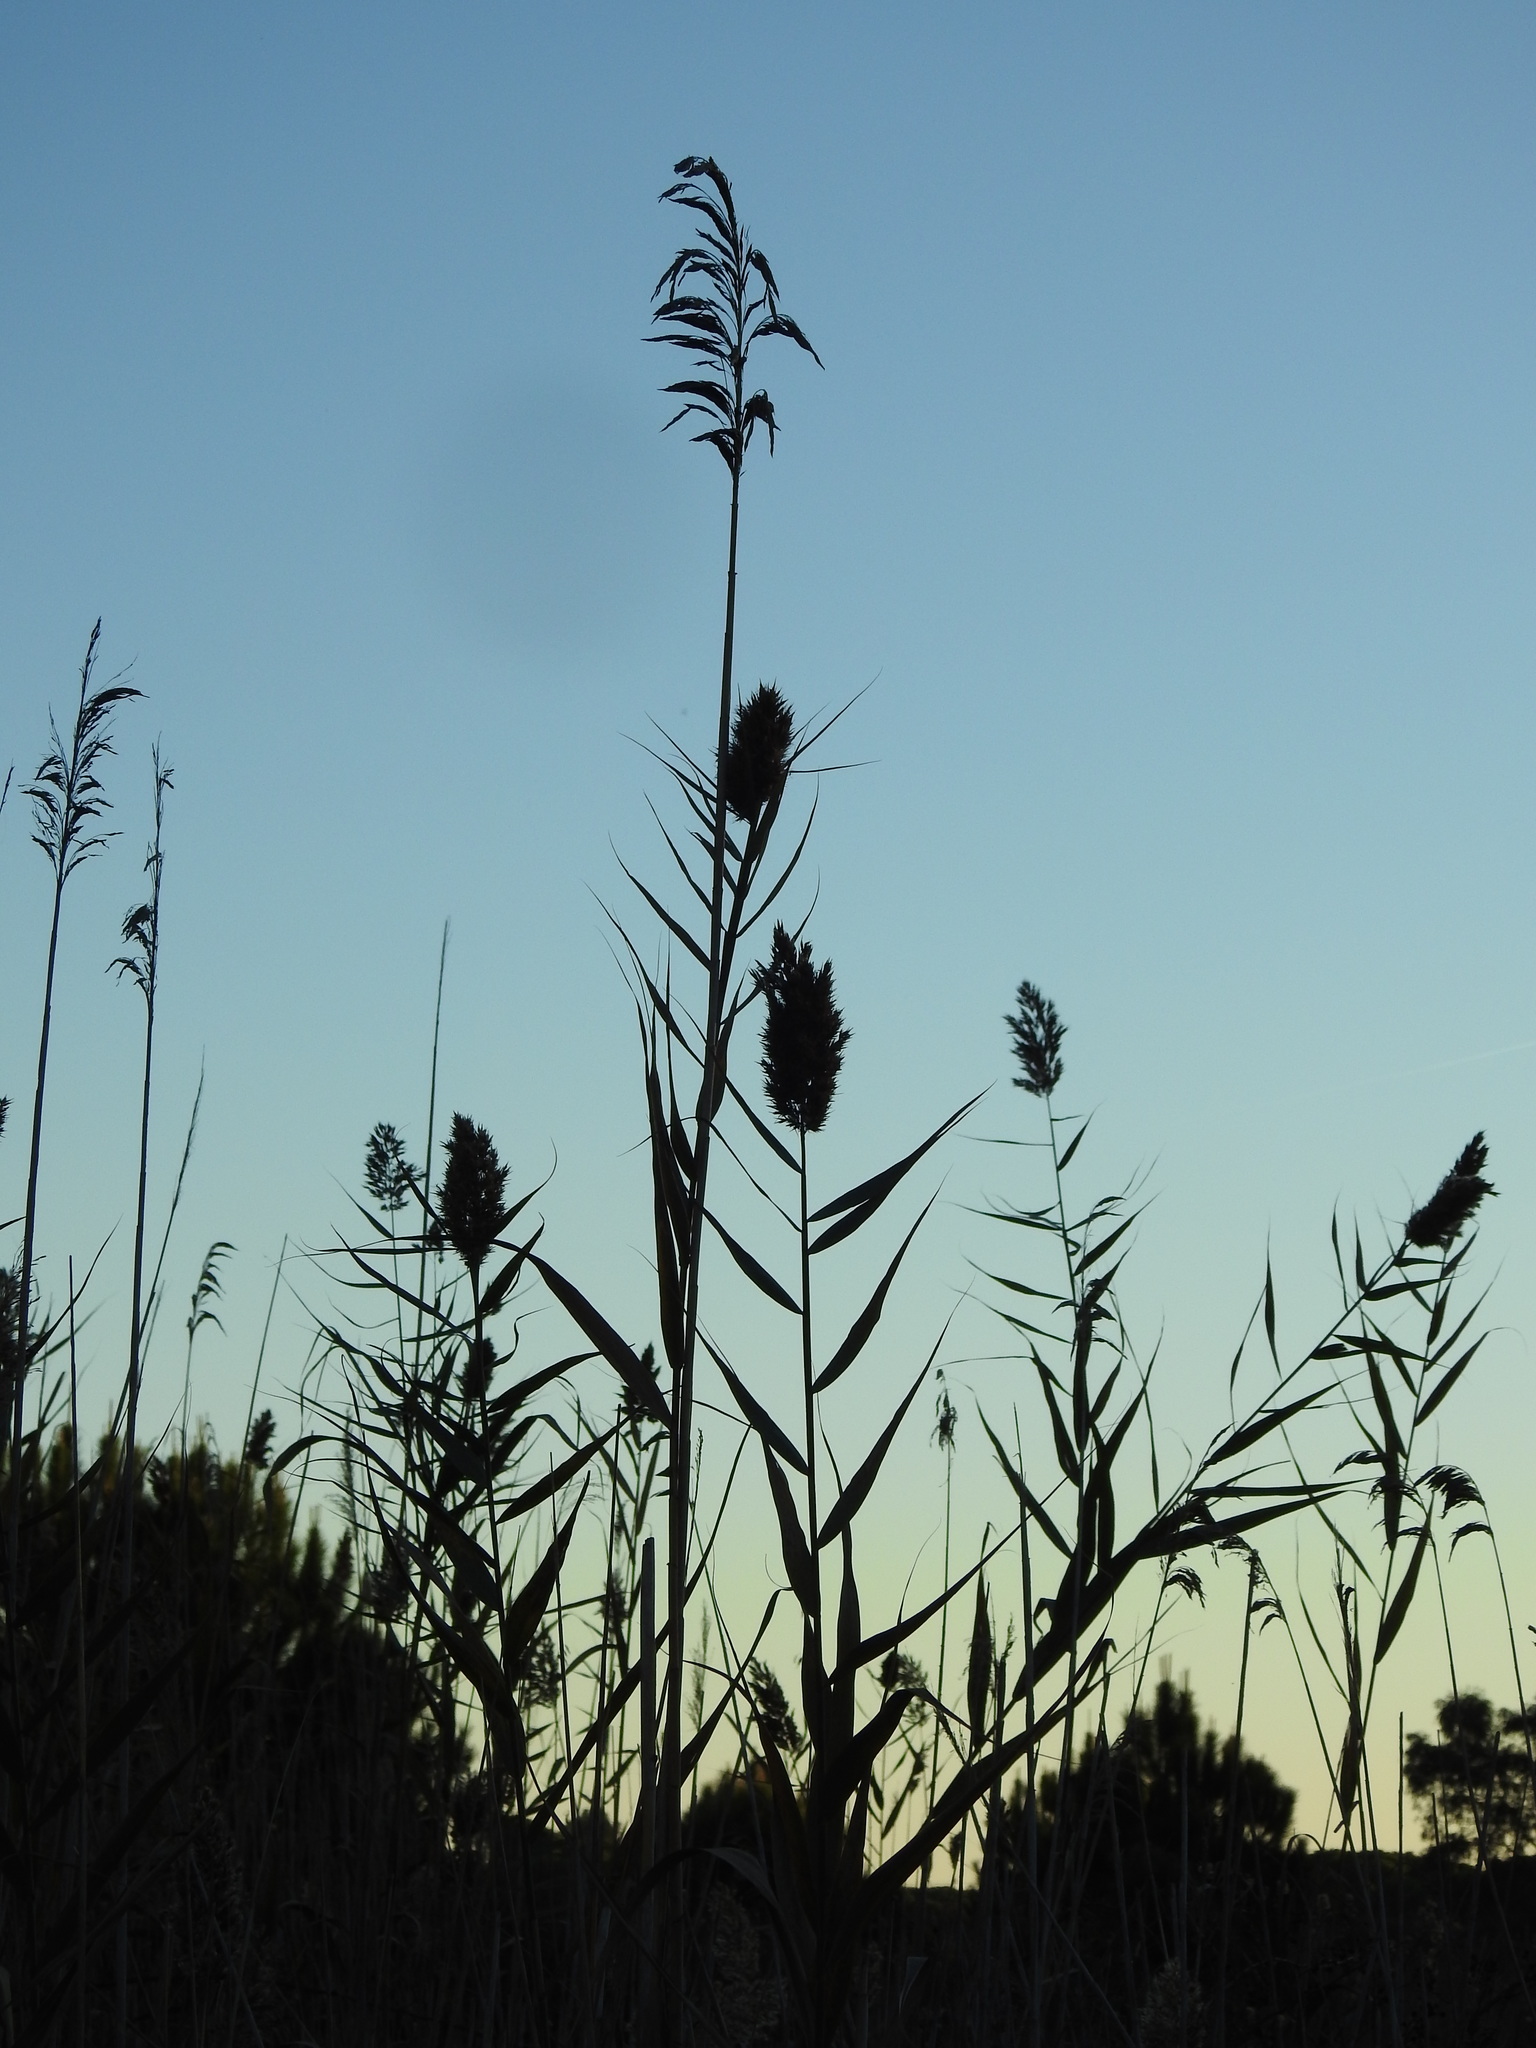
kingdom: Plantae
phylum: Tracheophyta
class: Liliopsida
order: Poales
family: Poaceae
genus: Phragmites
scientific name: Phragmites australis
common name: Common reed
